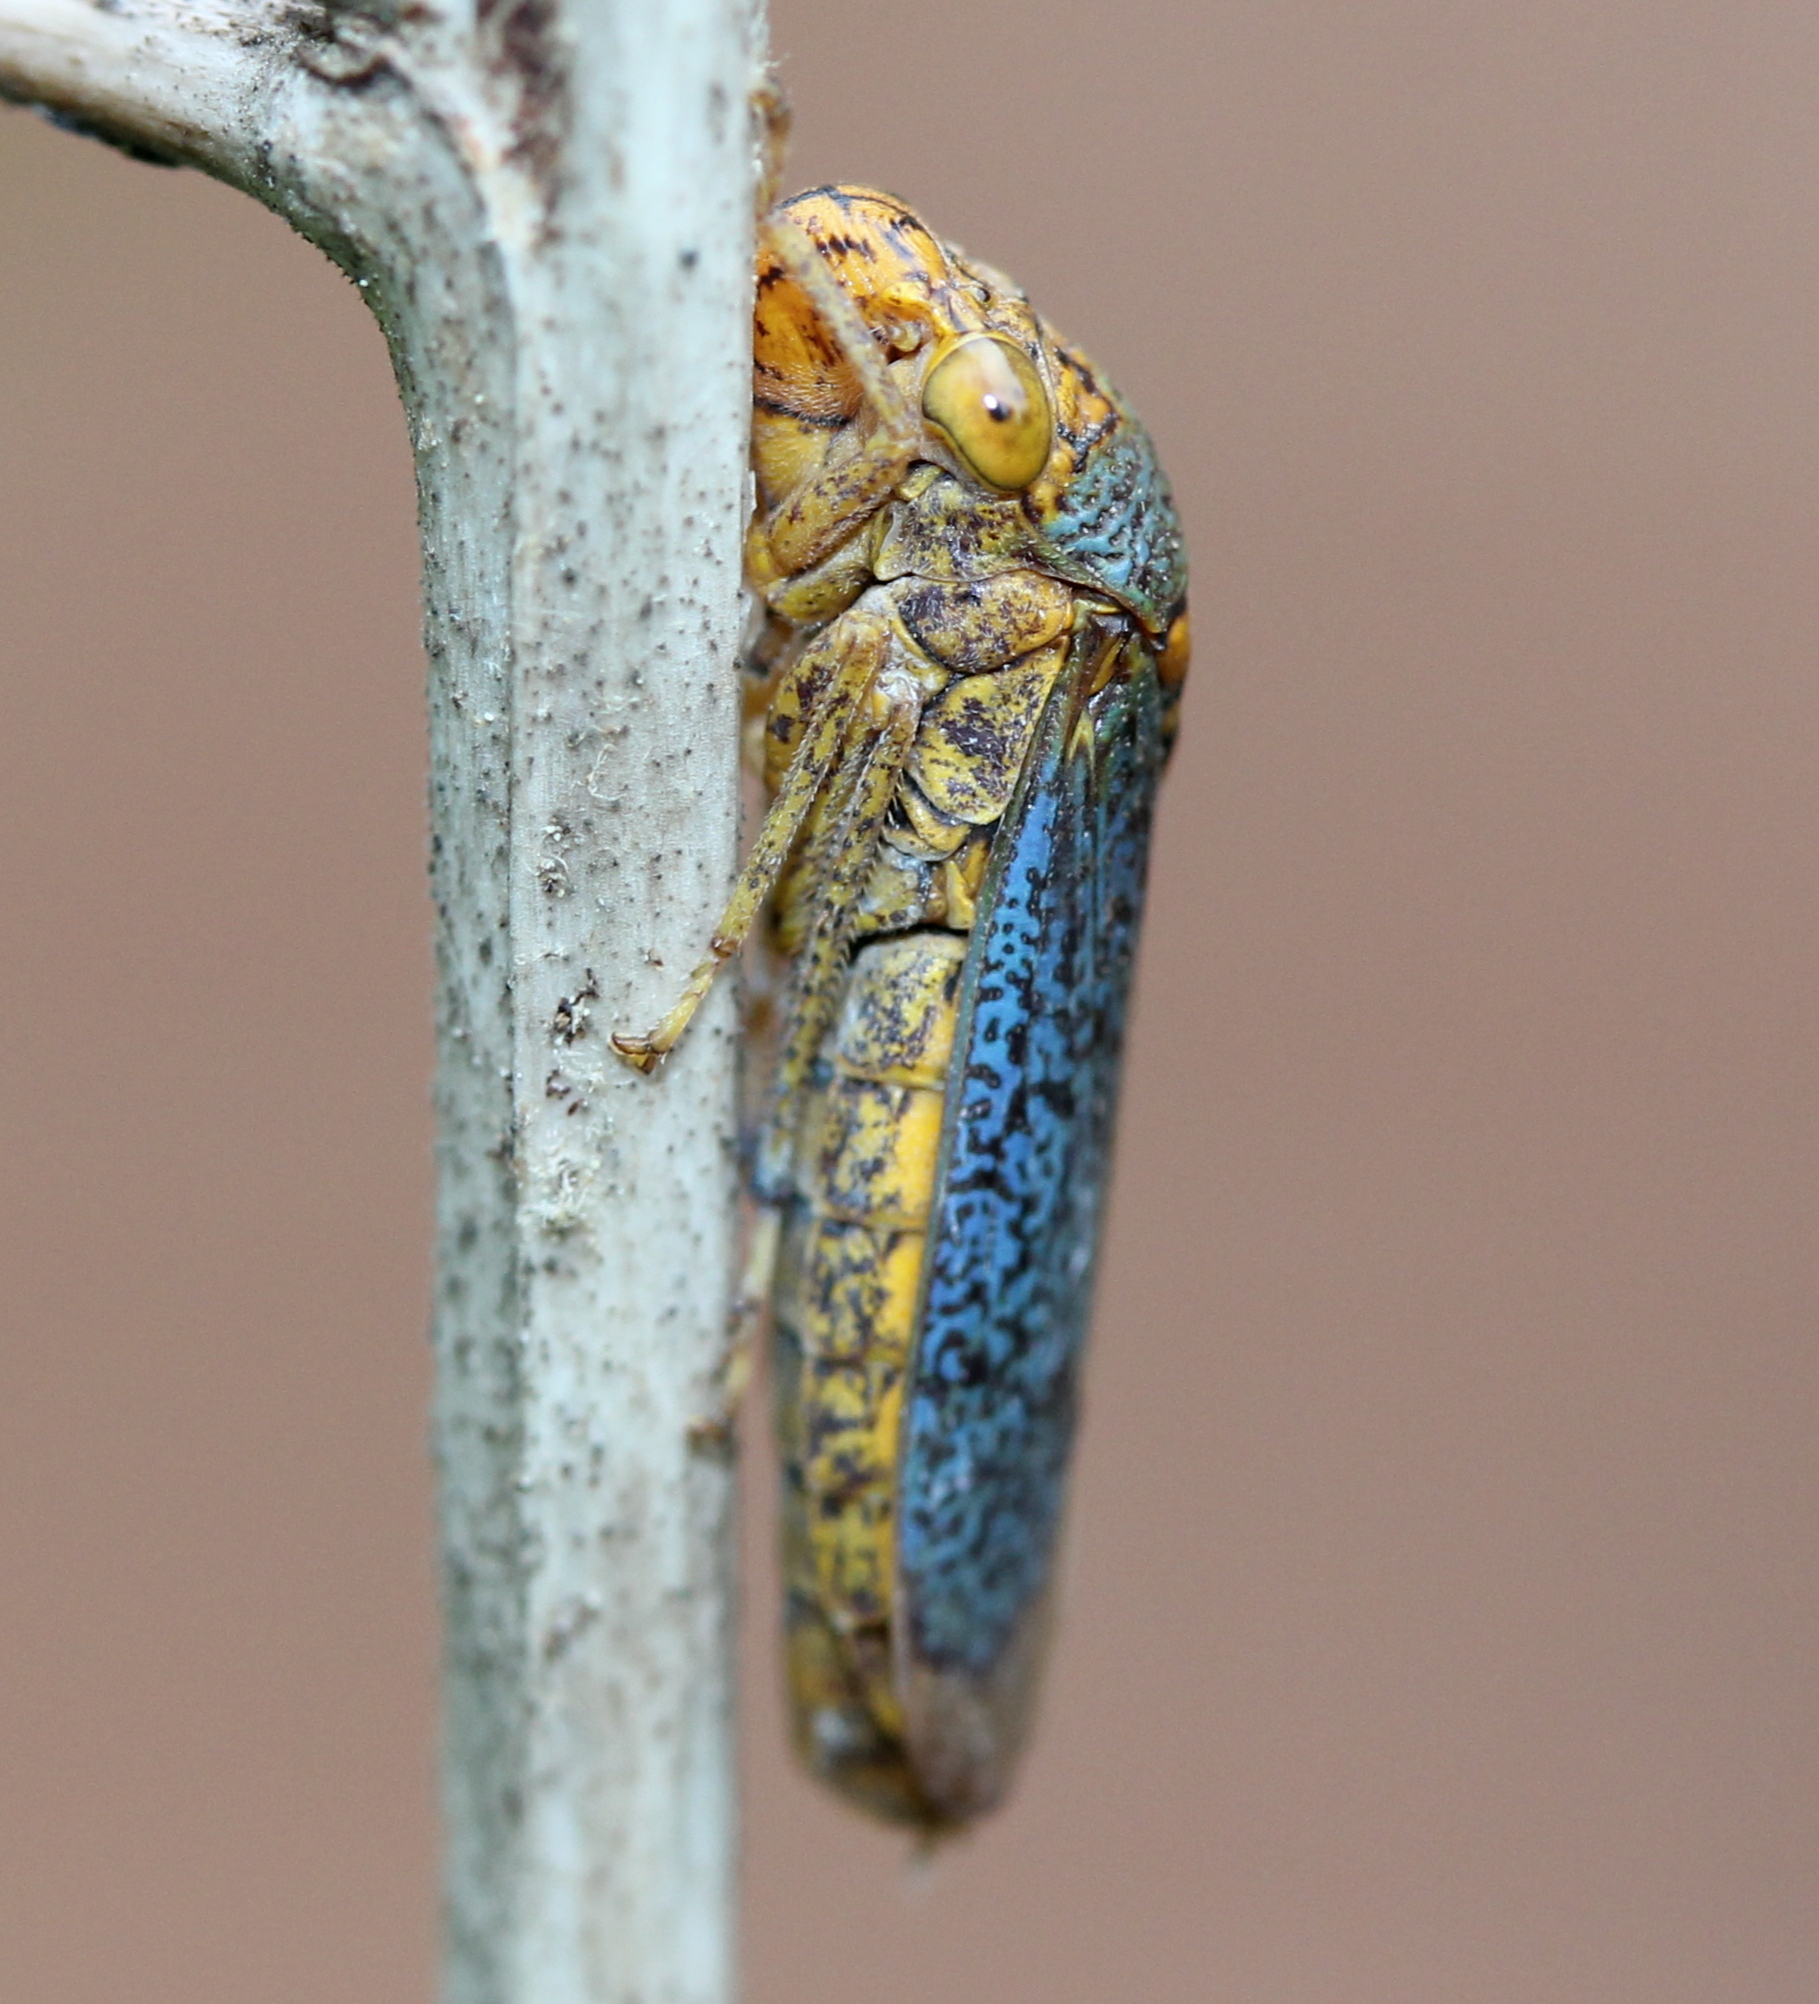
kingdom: Animalia
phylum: Arthropoda
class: Insecta
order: Hemiptera
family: Cicadellidae
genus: Oncometopia
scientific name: Oncometopia orbona
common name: Broad-headed sharpshooter
